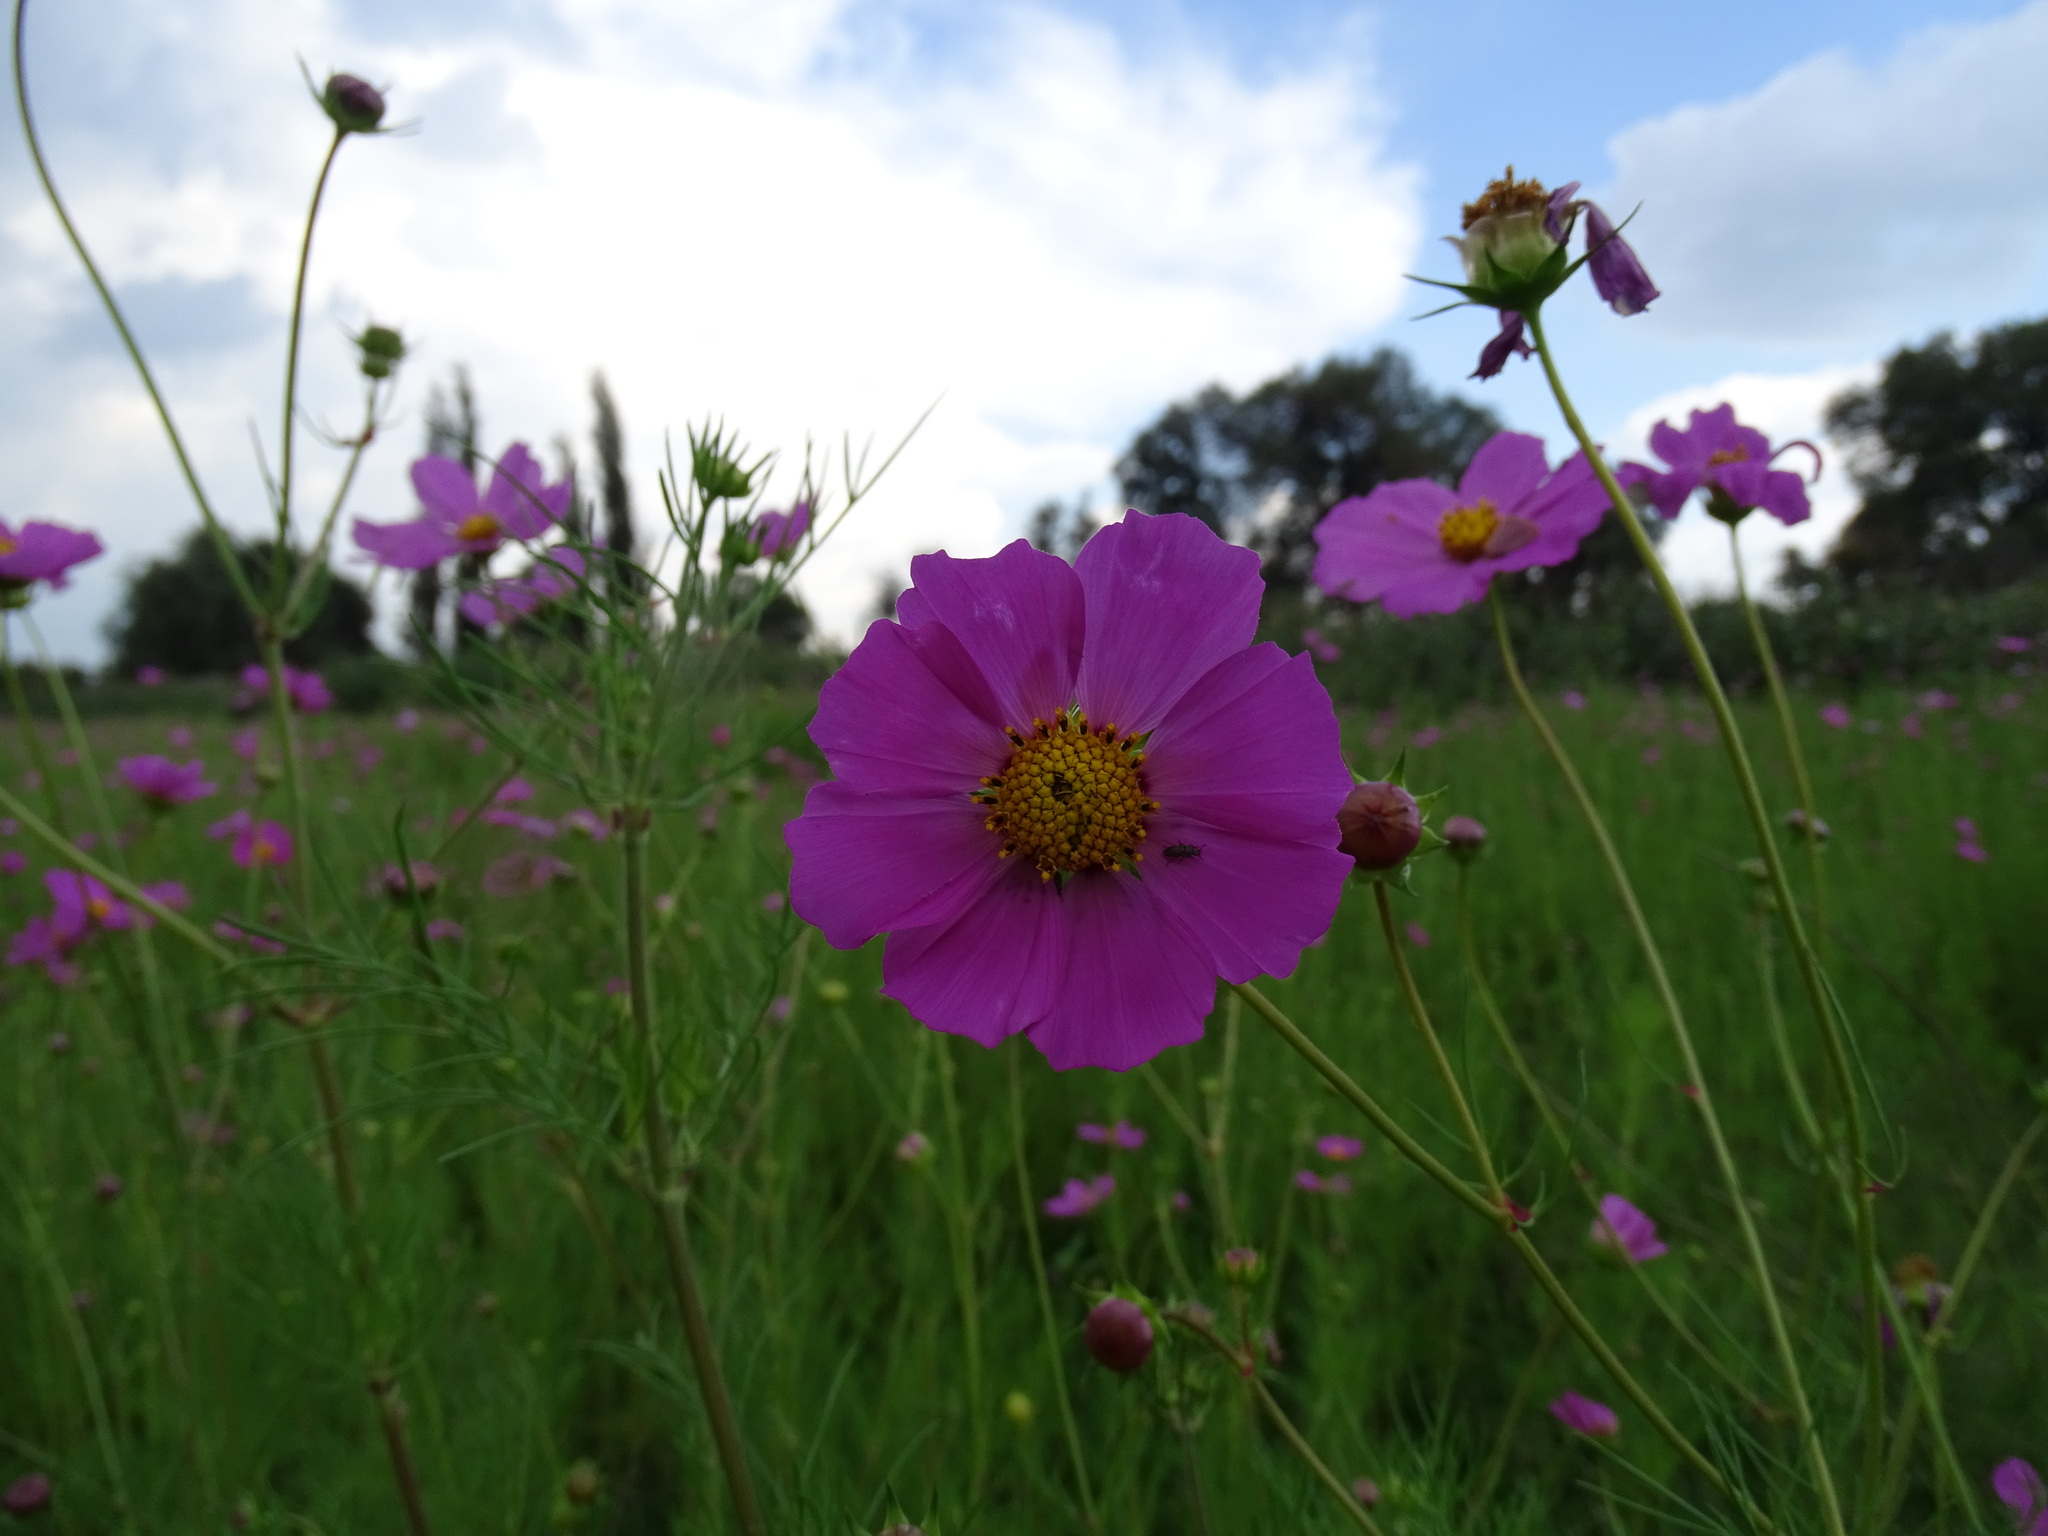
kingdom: Plantae
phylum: Tracheophyta
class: Magnoliopsida
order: Asterales
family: Asteraceae
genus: Cosmos
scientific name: Cosmos bipinnatus
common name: Garden cosmos
